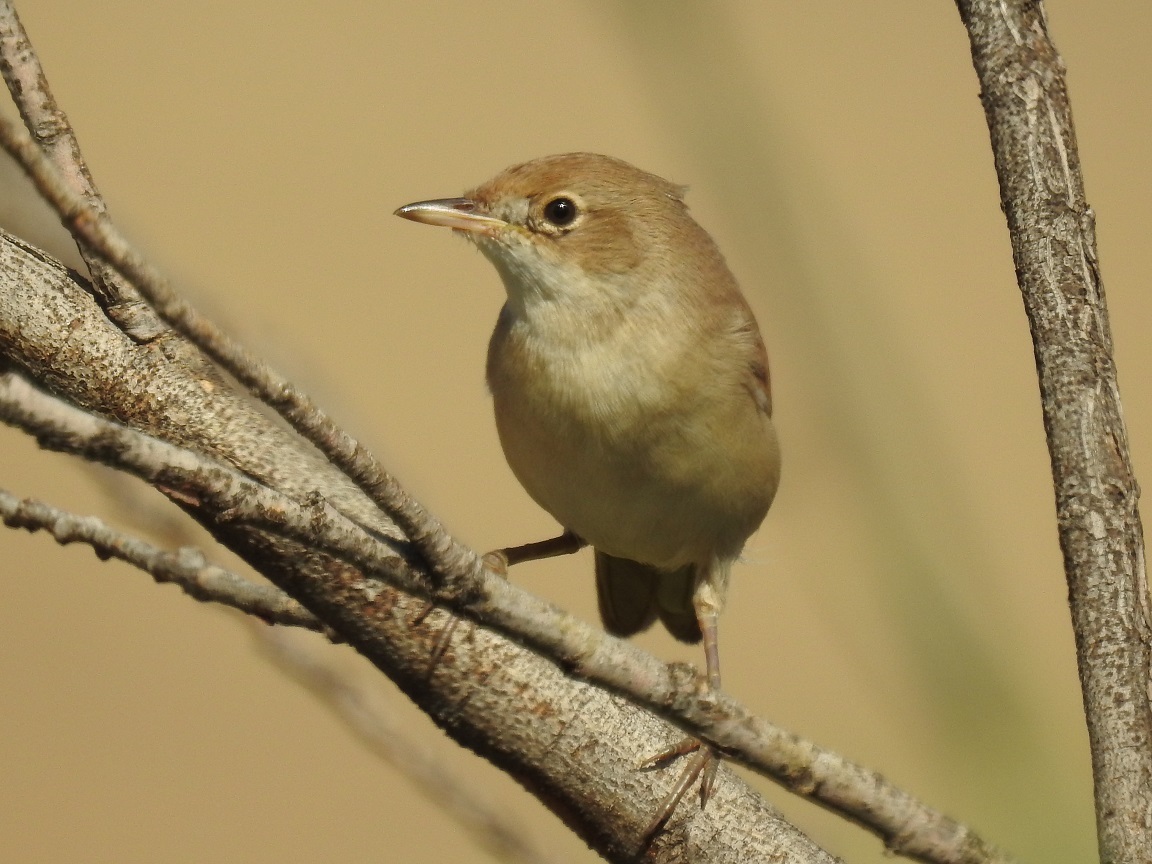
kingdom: Animalia
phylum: Chordata
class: Aves
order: Passeriformes
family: Sylviidae
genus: Sylvia
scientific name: Sylvia borin
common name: Garden warbler
